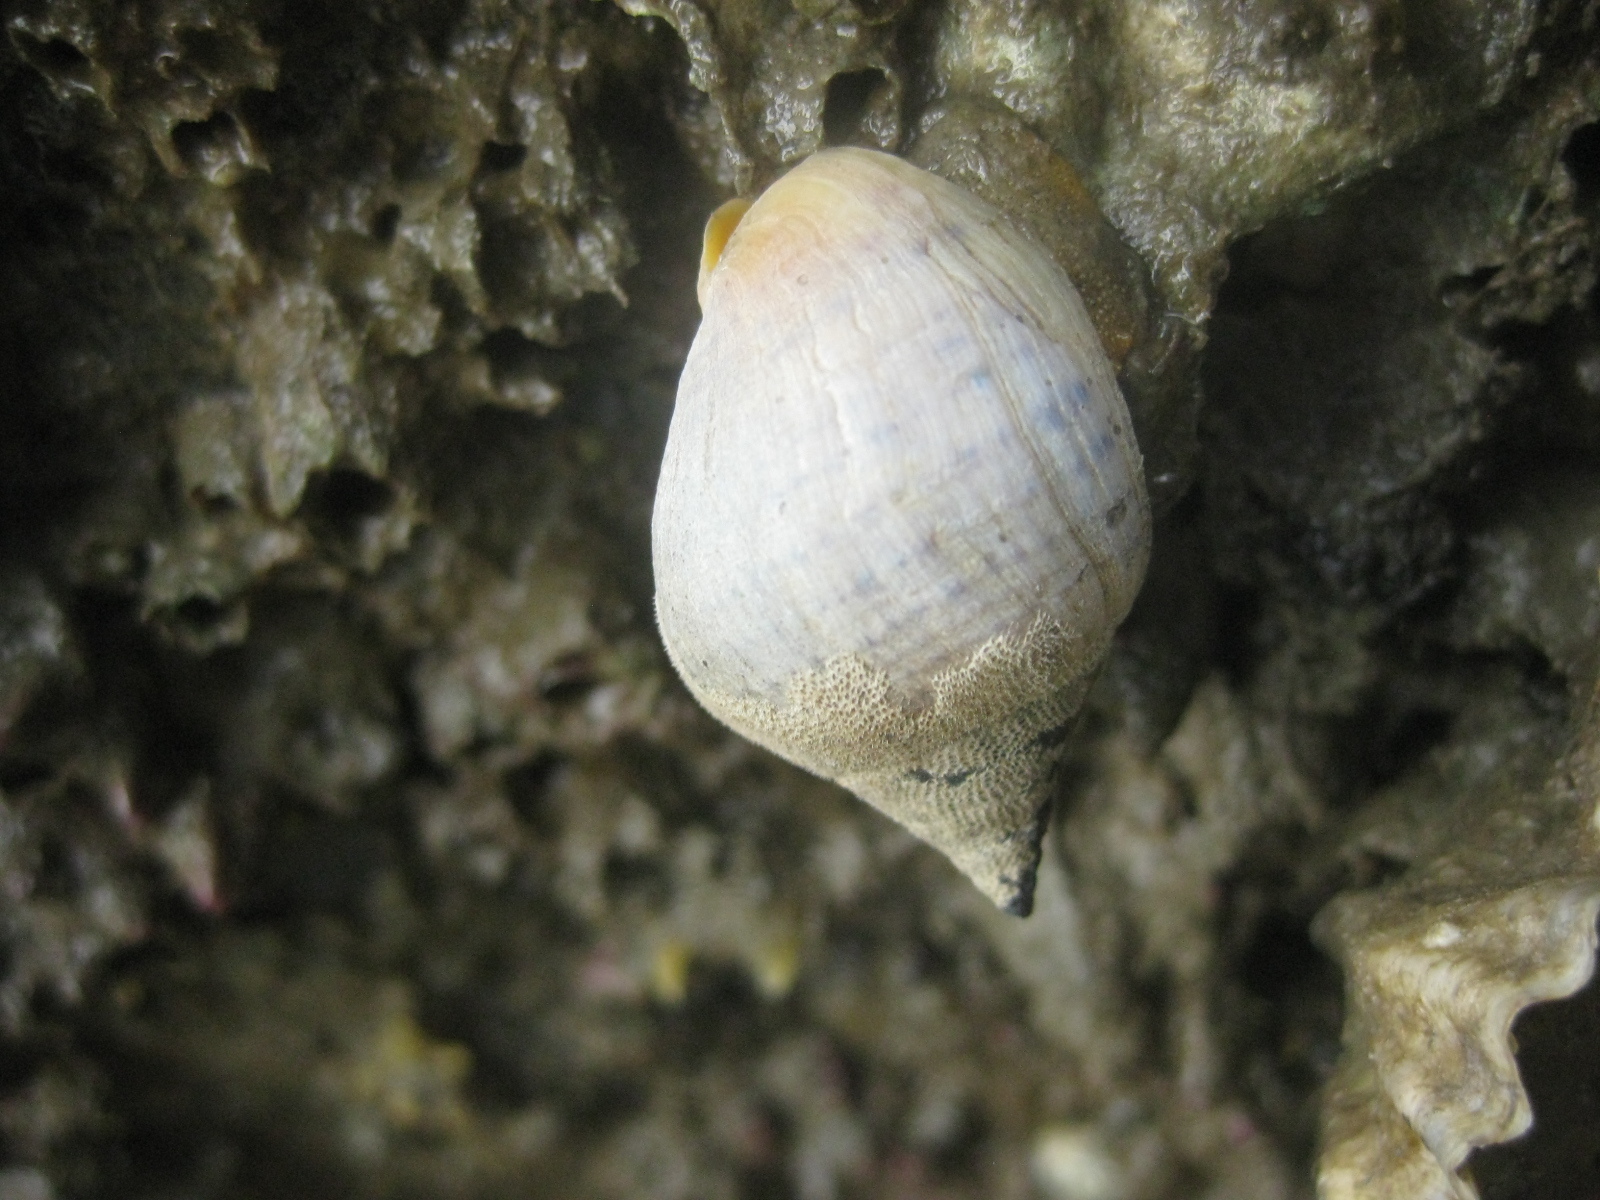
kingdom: Animalia
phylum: Mollusca
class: Gastropoda
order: Neogastropoda
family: Cominellidae
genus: Cominella
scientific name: Cominella adspersa
